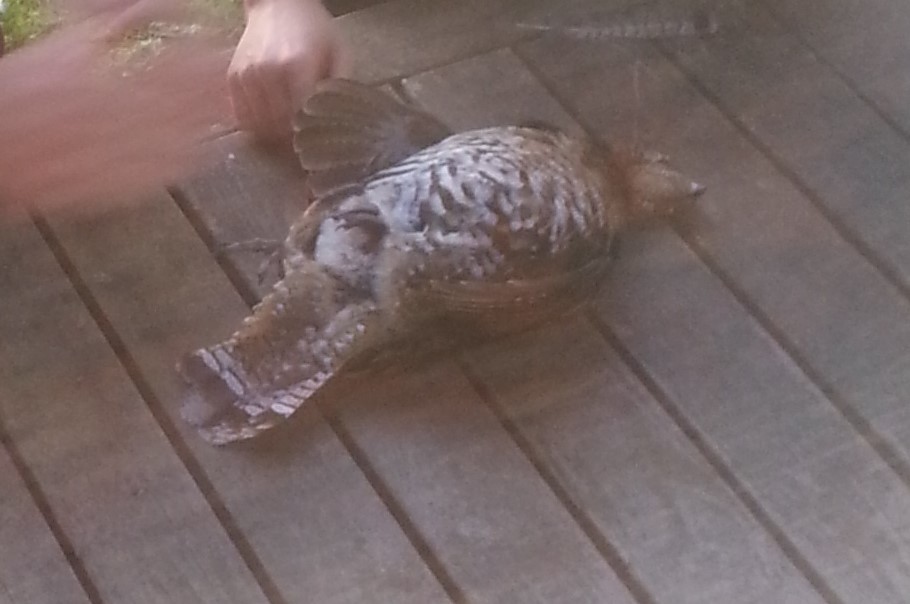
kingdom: Animalia
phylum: Chordata
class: Aves
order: Galliformes
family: Phasianidae
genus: Bonasa
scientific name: Bonasa umbellus
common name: Ruffed grouse
